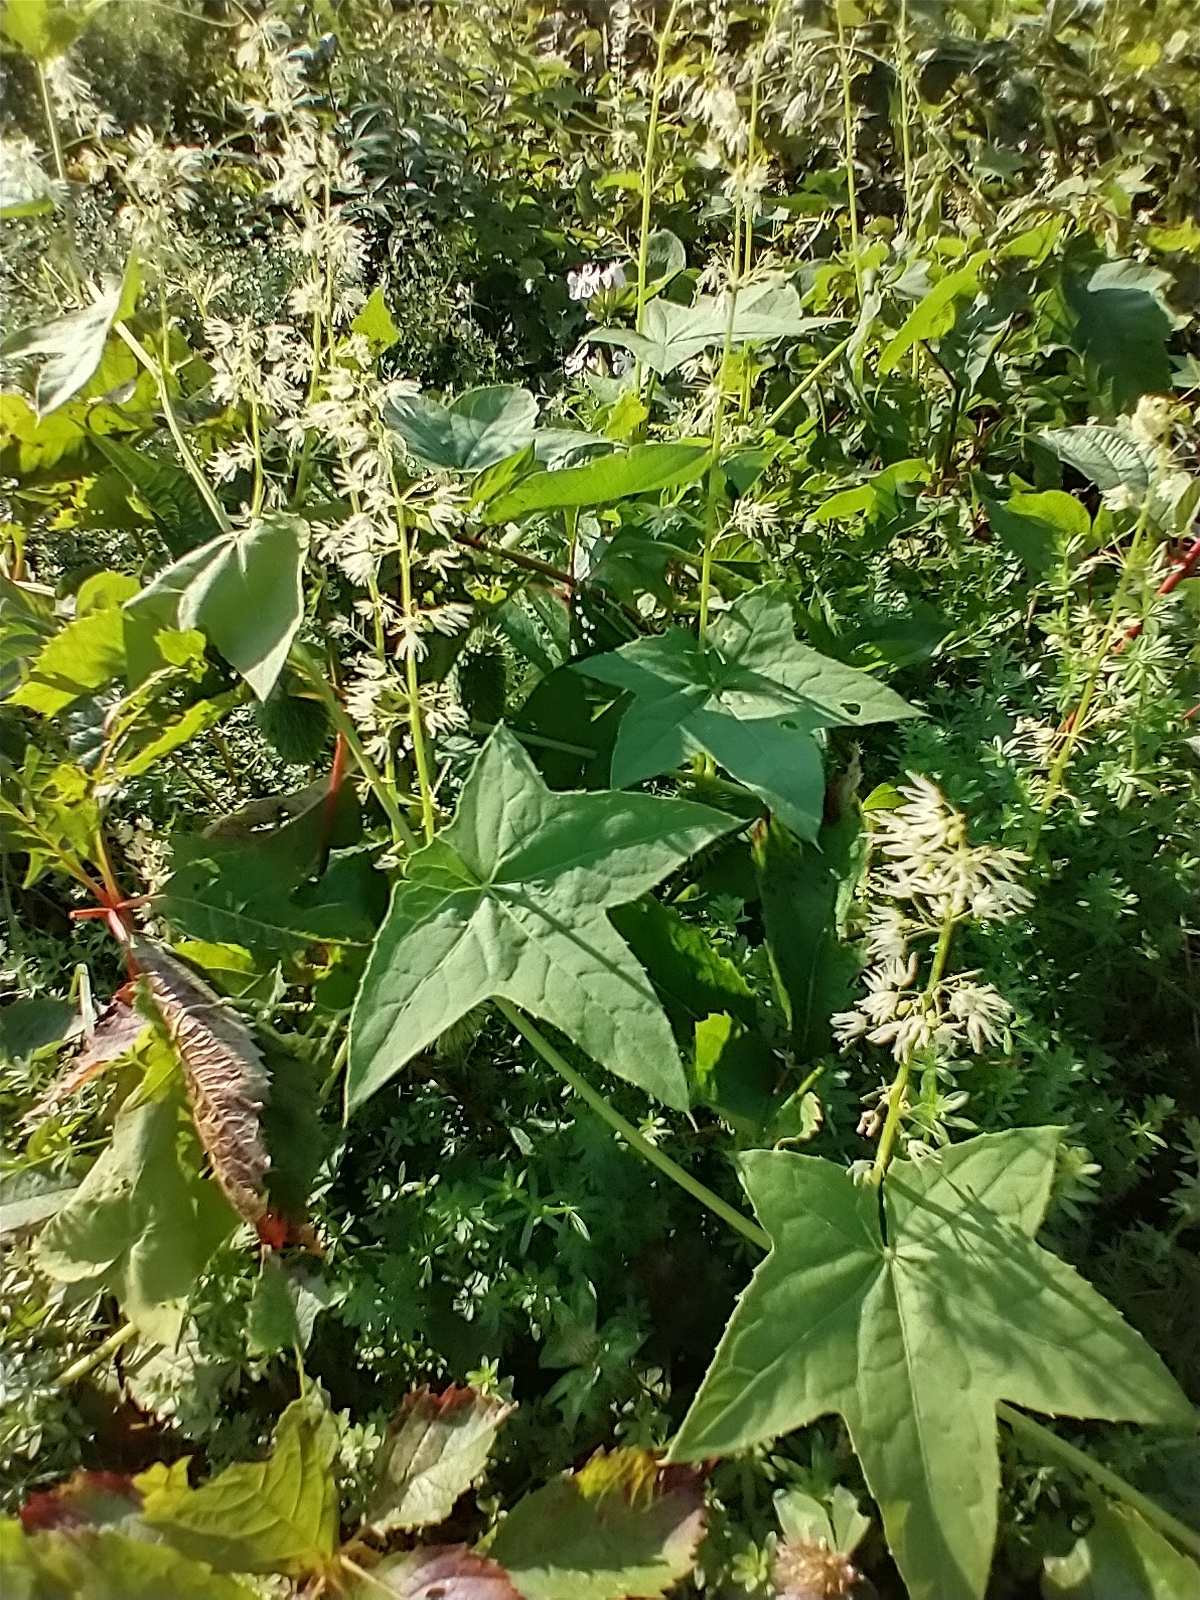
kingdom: Plantae
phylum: Tracheophyta
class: Magnoliopsida
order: Cucurbitales
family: Cucurbitaceae
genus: Echinocystis
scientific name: Echinocystis lobata
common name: Wild cucumber
